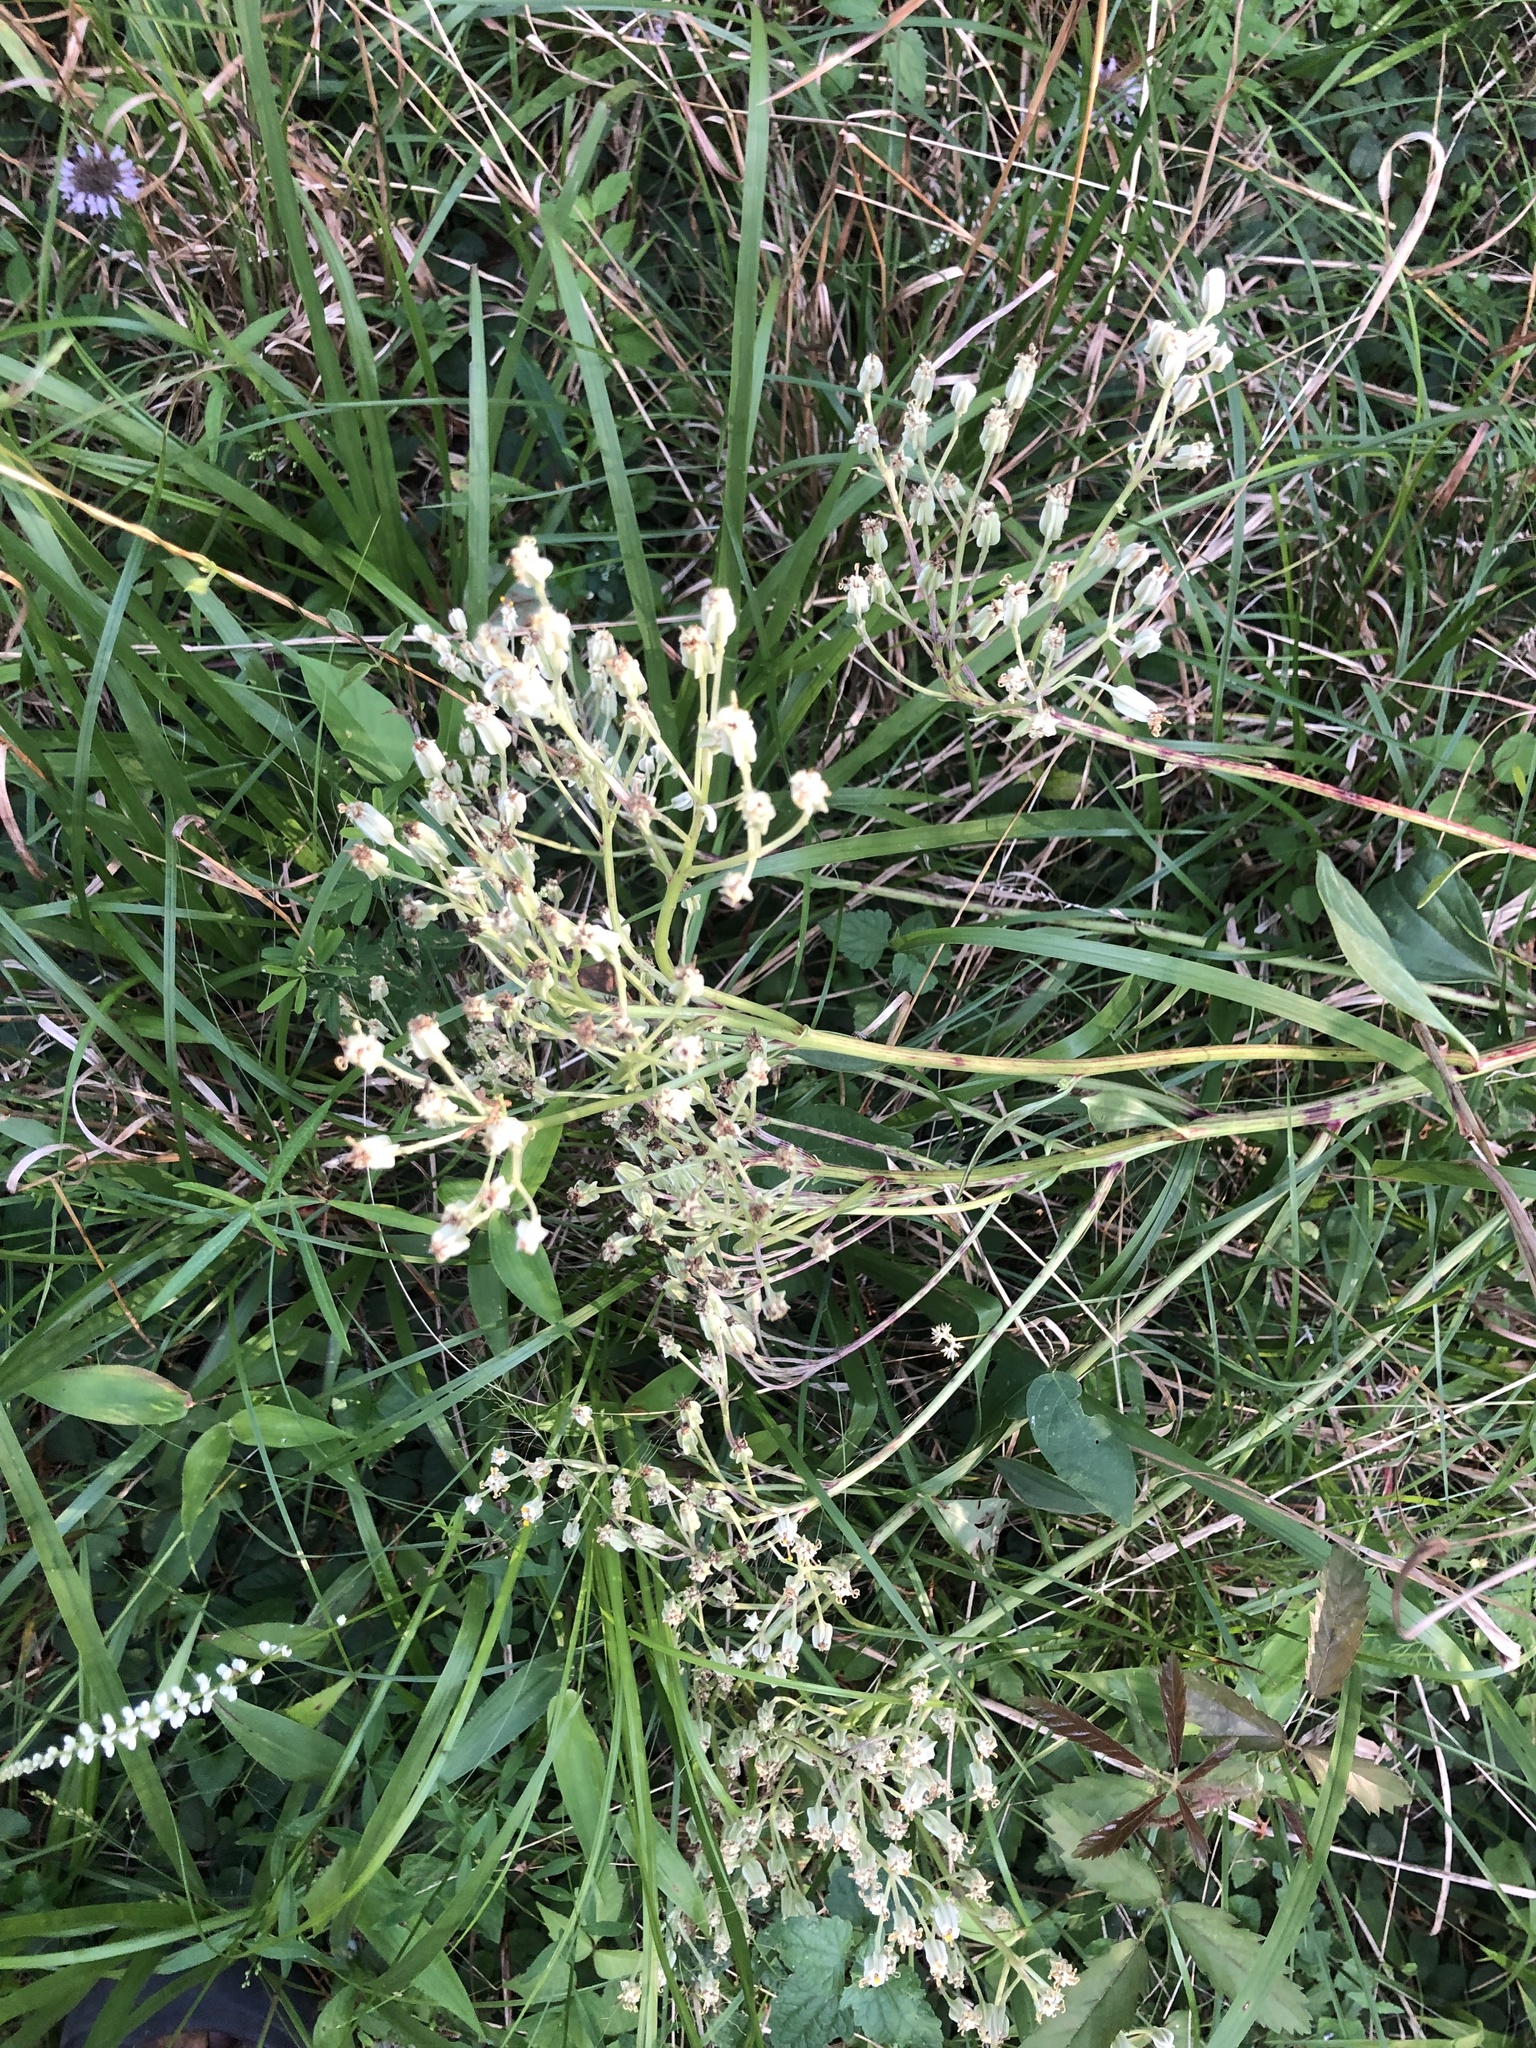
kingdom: Plantae
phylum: Tracheophyta
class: Magnoliopsida
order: Asterales
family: Asteraceae
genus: Arnoglossum
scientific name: Arnoglossum plantagineum
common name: Groove-stemmed indian-plantain
